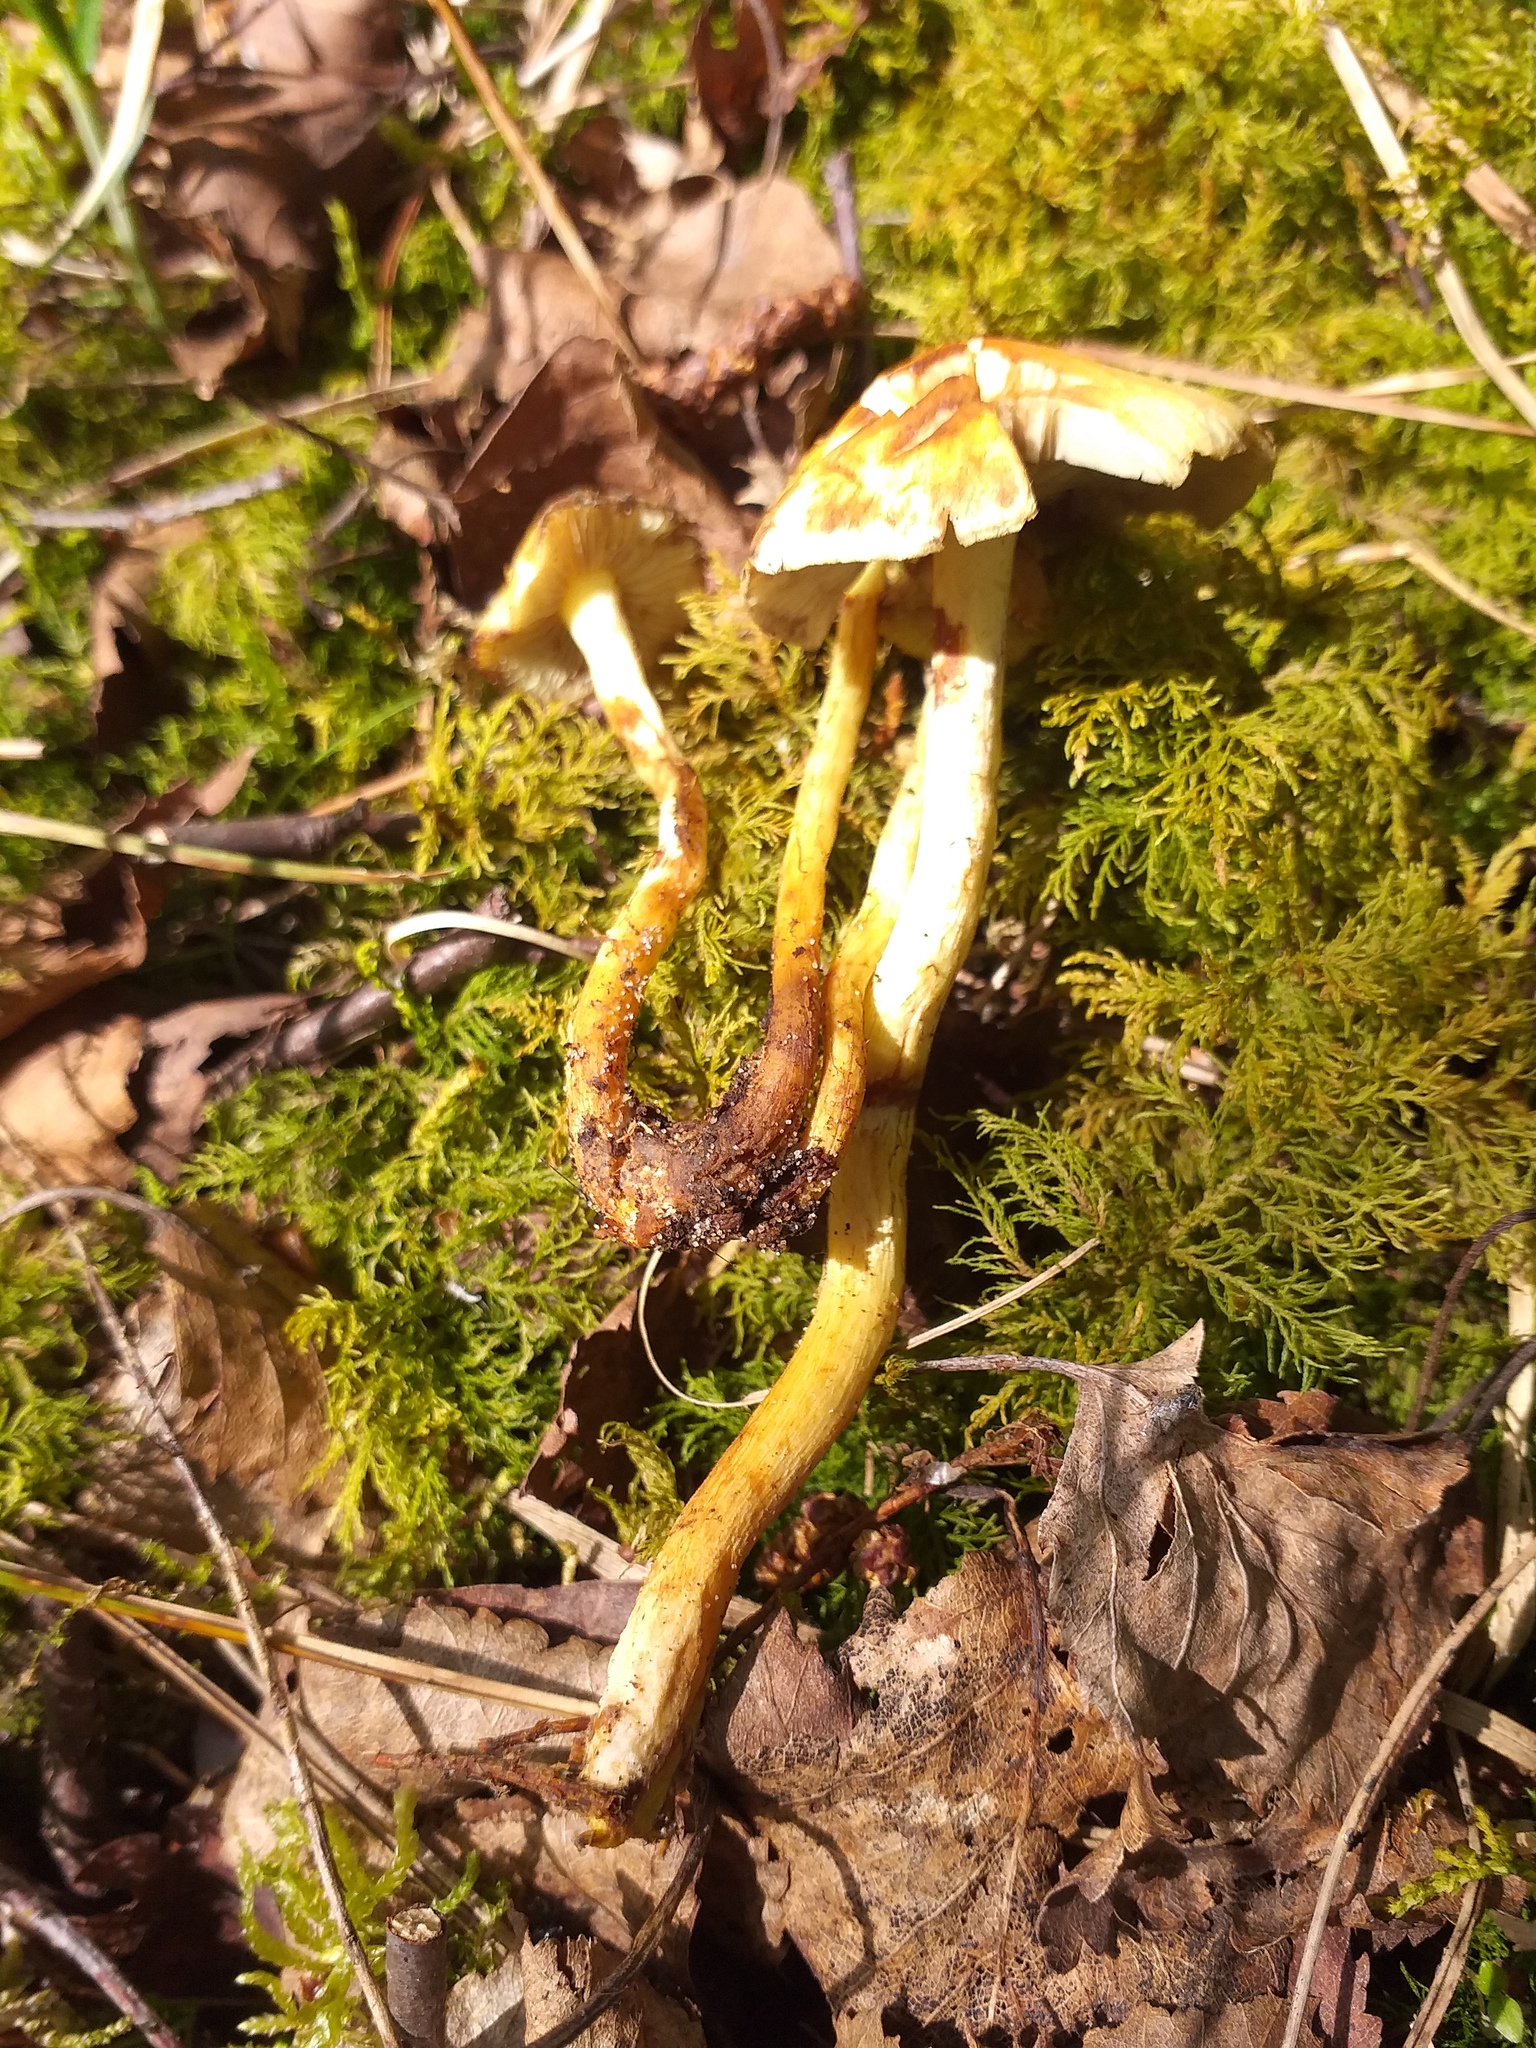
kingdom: Fungi
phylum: Basidiomycota
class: Agaricomycetes
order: Agaricales
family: Strophariaceae
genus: Hypholoma
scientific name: Hypholoma fasciculare
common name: Sulphur tuft
